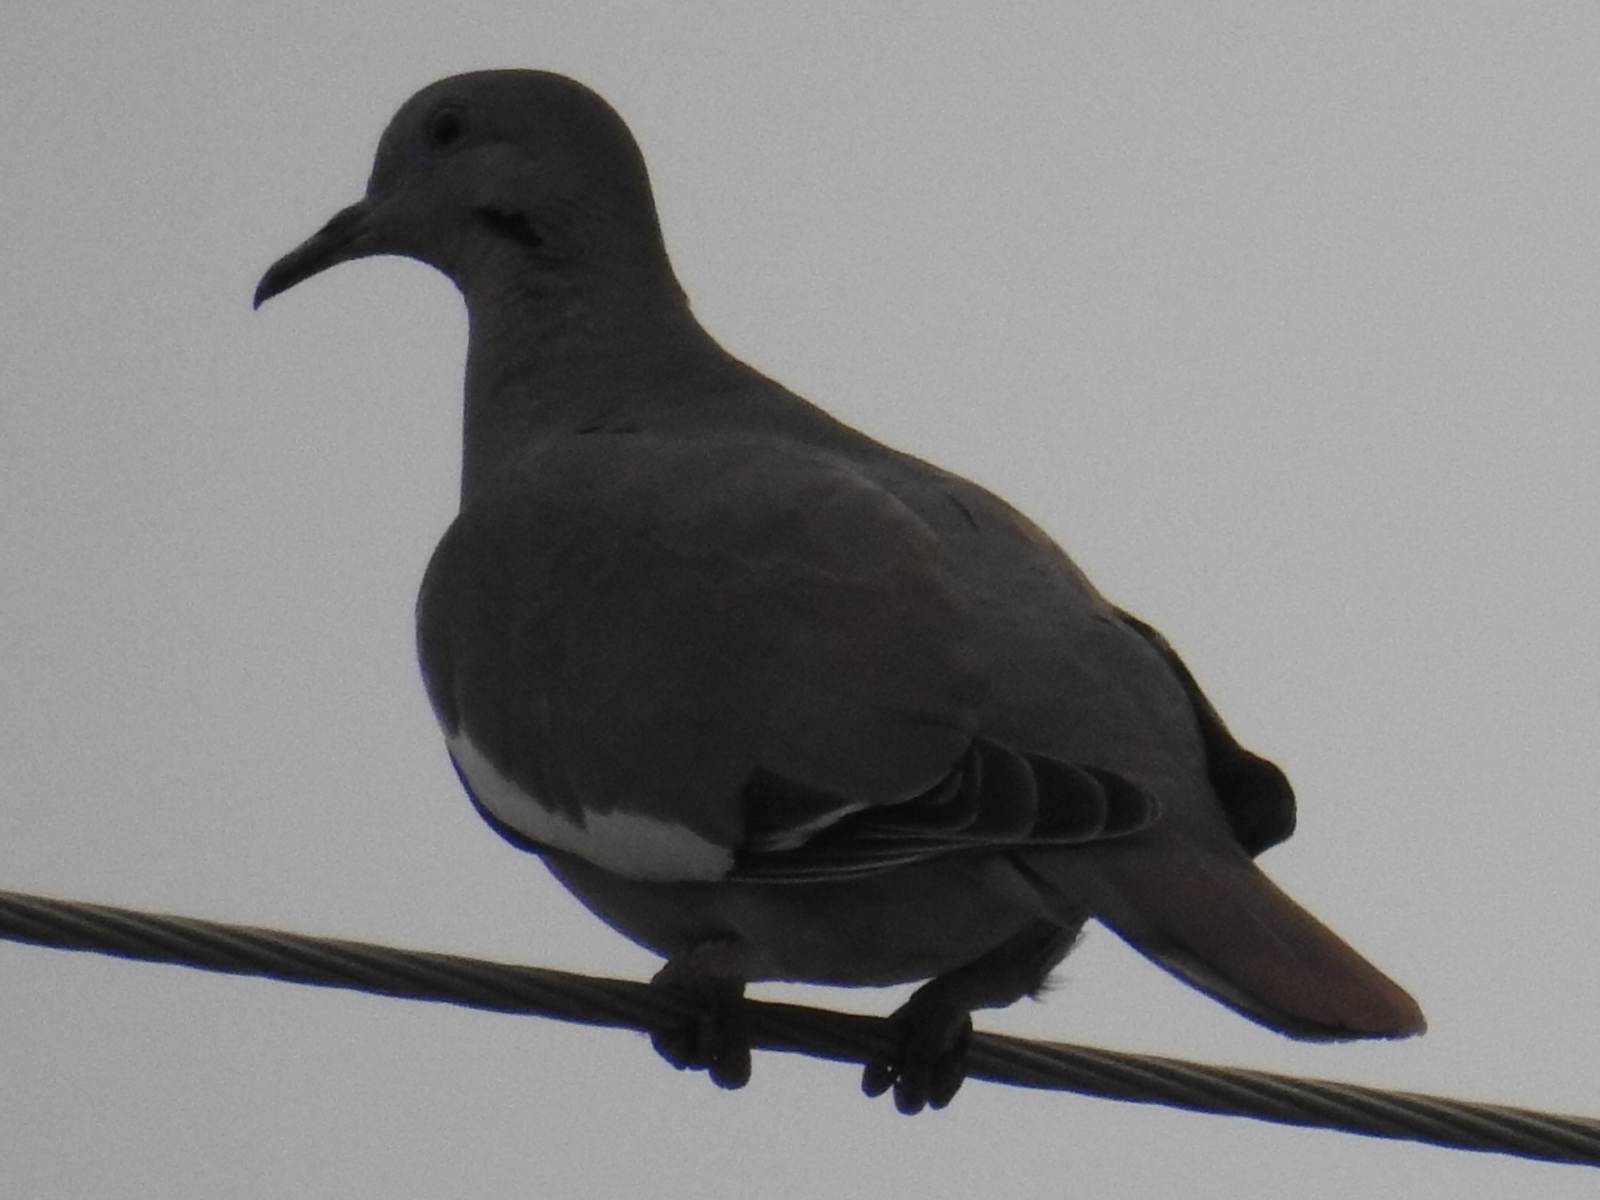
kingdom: Animalia
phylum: Chordata
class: Aves
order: Columbiformes
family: Columbidae
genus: Zenaida
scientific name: Zenaida asiatica
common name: White-winged dove
